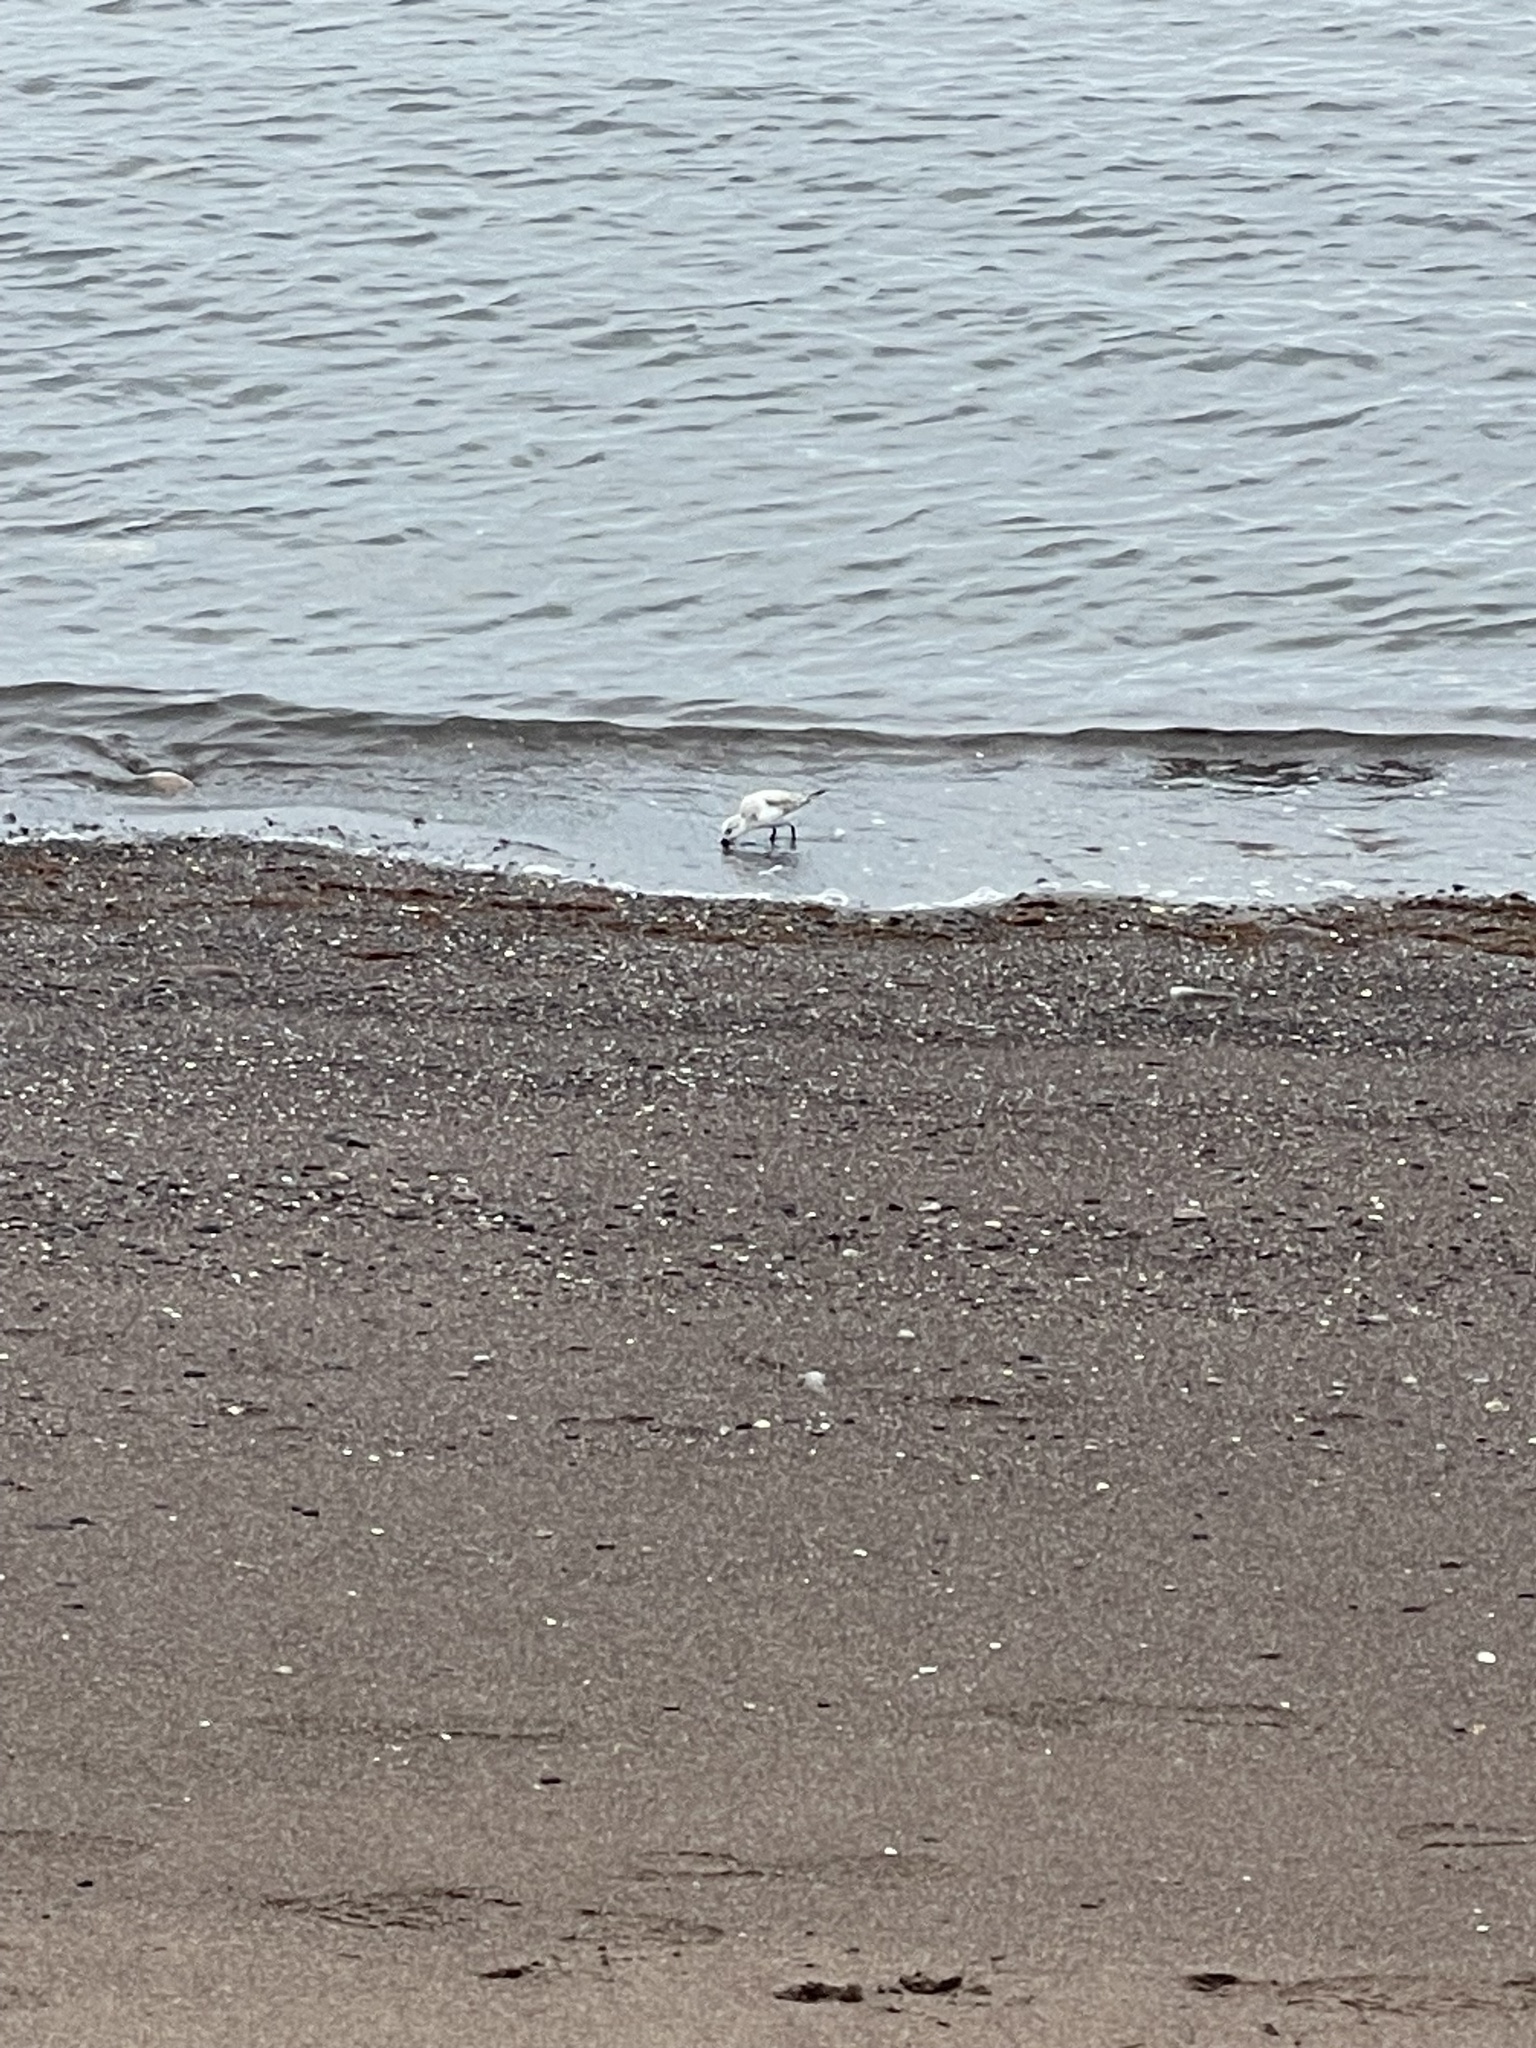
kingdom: Animalia
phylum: Chordata
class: Aves
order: Charadriiformes
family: Scolopacidae
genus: Calidris
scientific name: Calidris alba
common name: Sanderling
